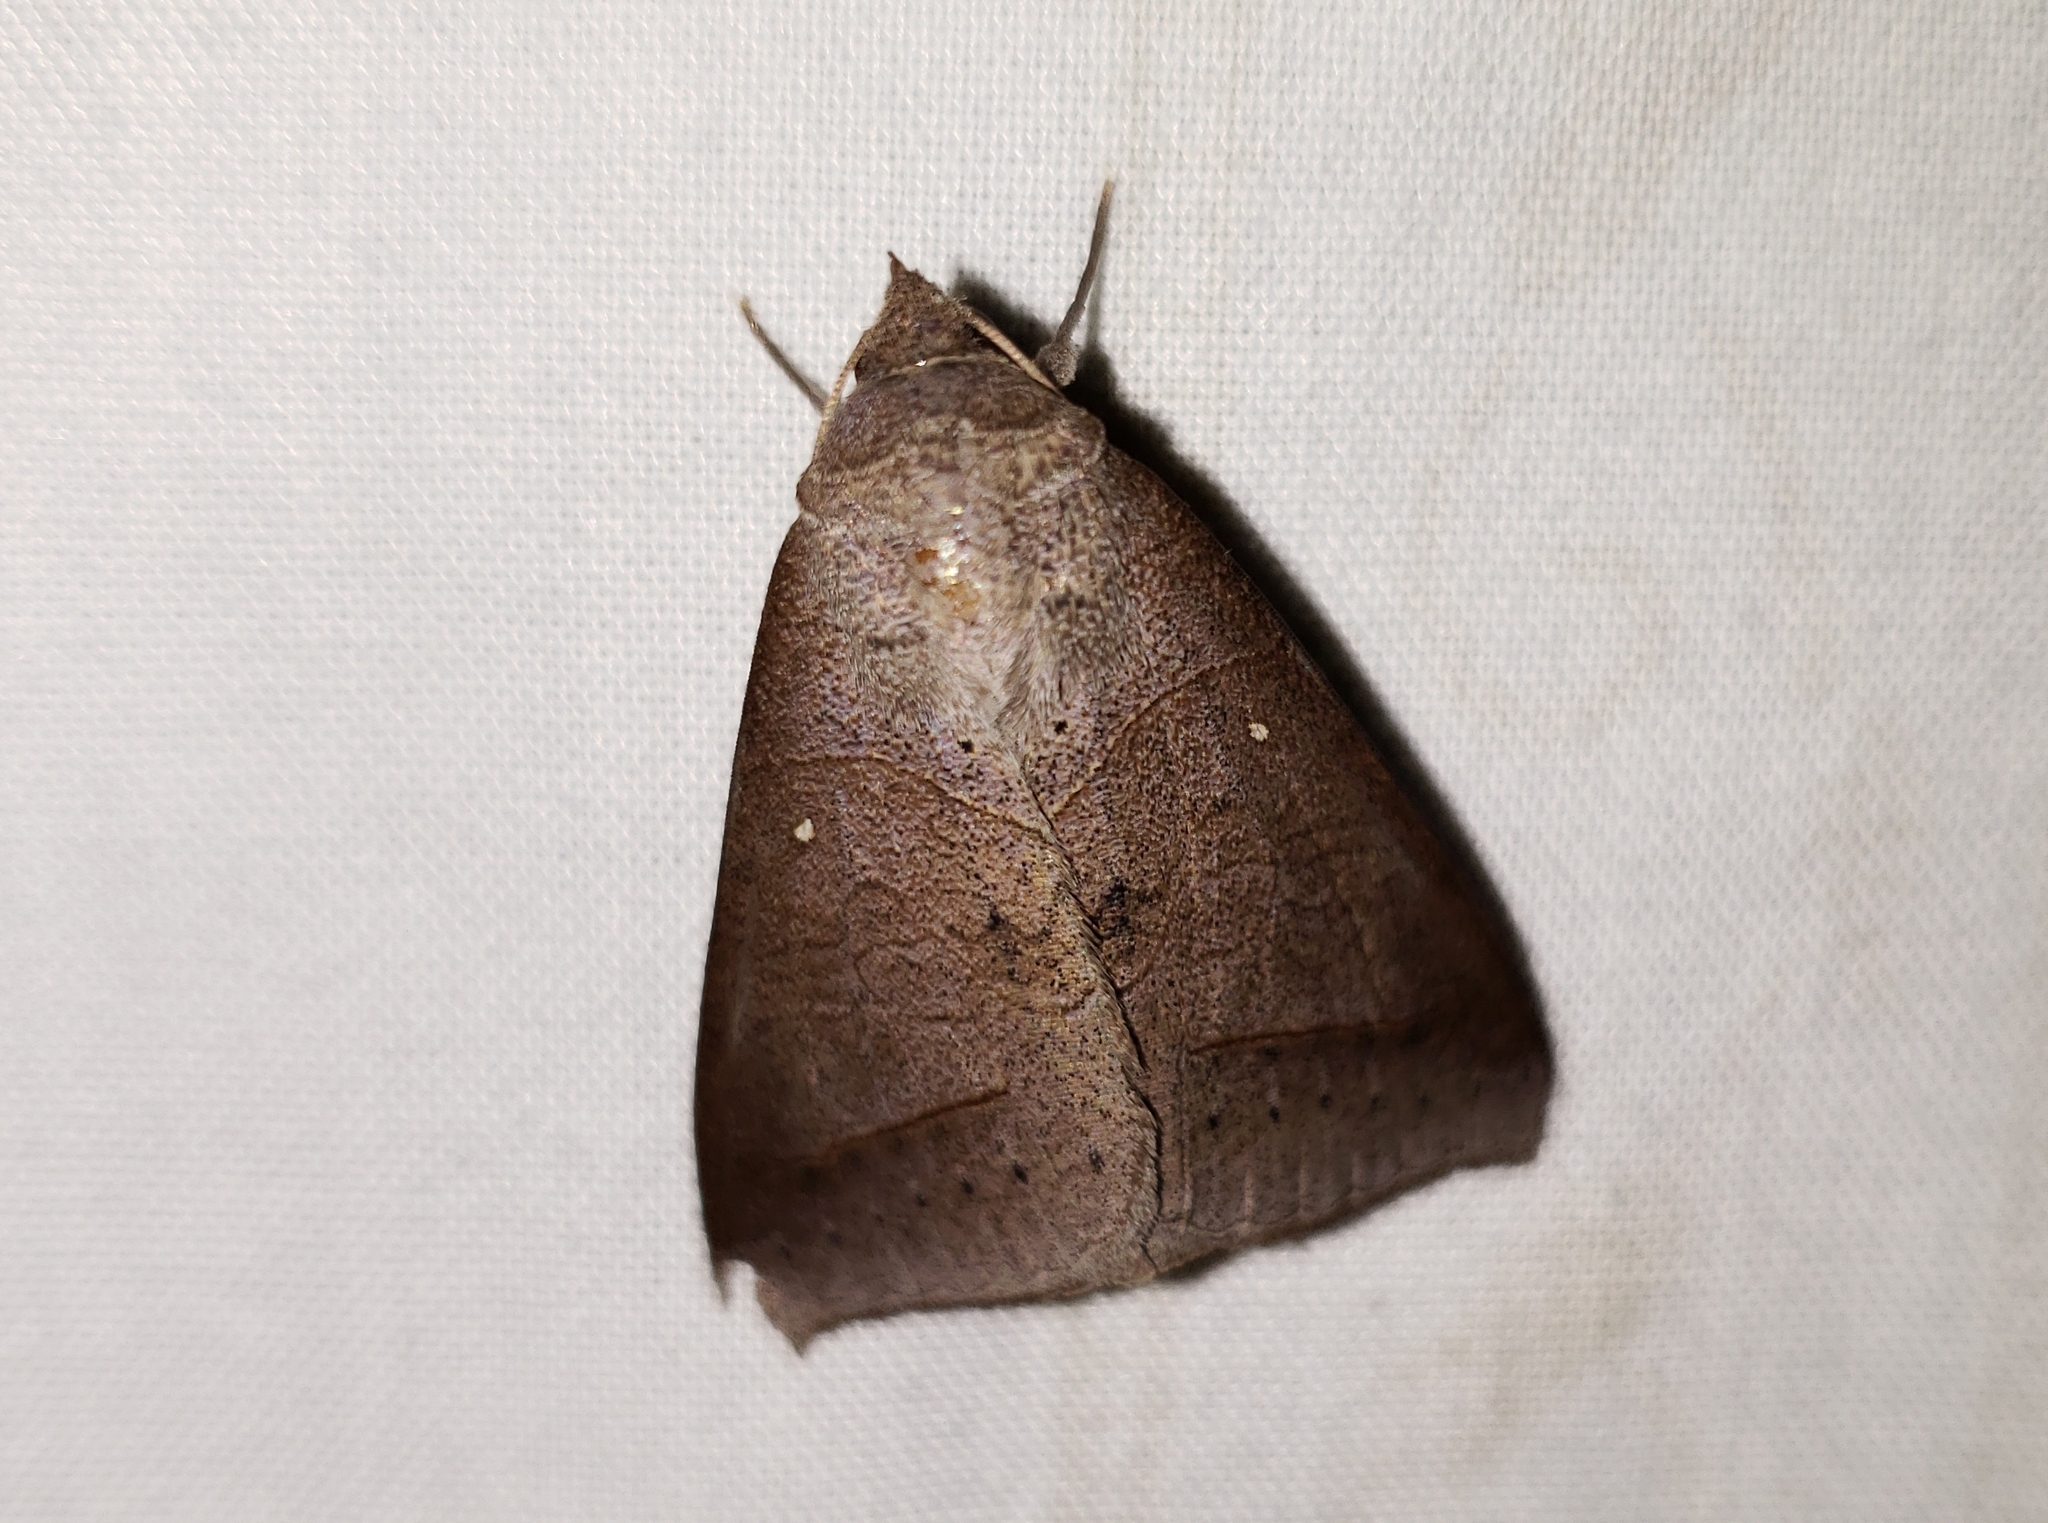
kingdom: Animalia
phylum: Arthropoda
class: Insecta
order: Lepidoptera
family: Erebidae
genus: Mocis
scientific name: Mocis marcida
